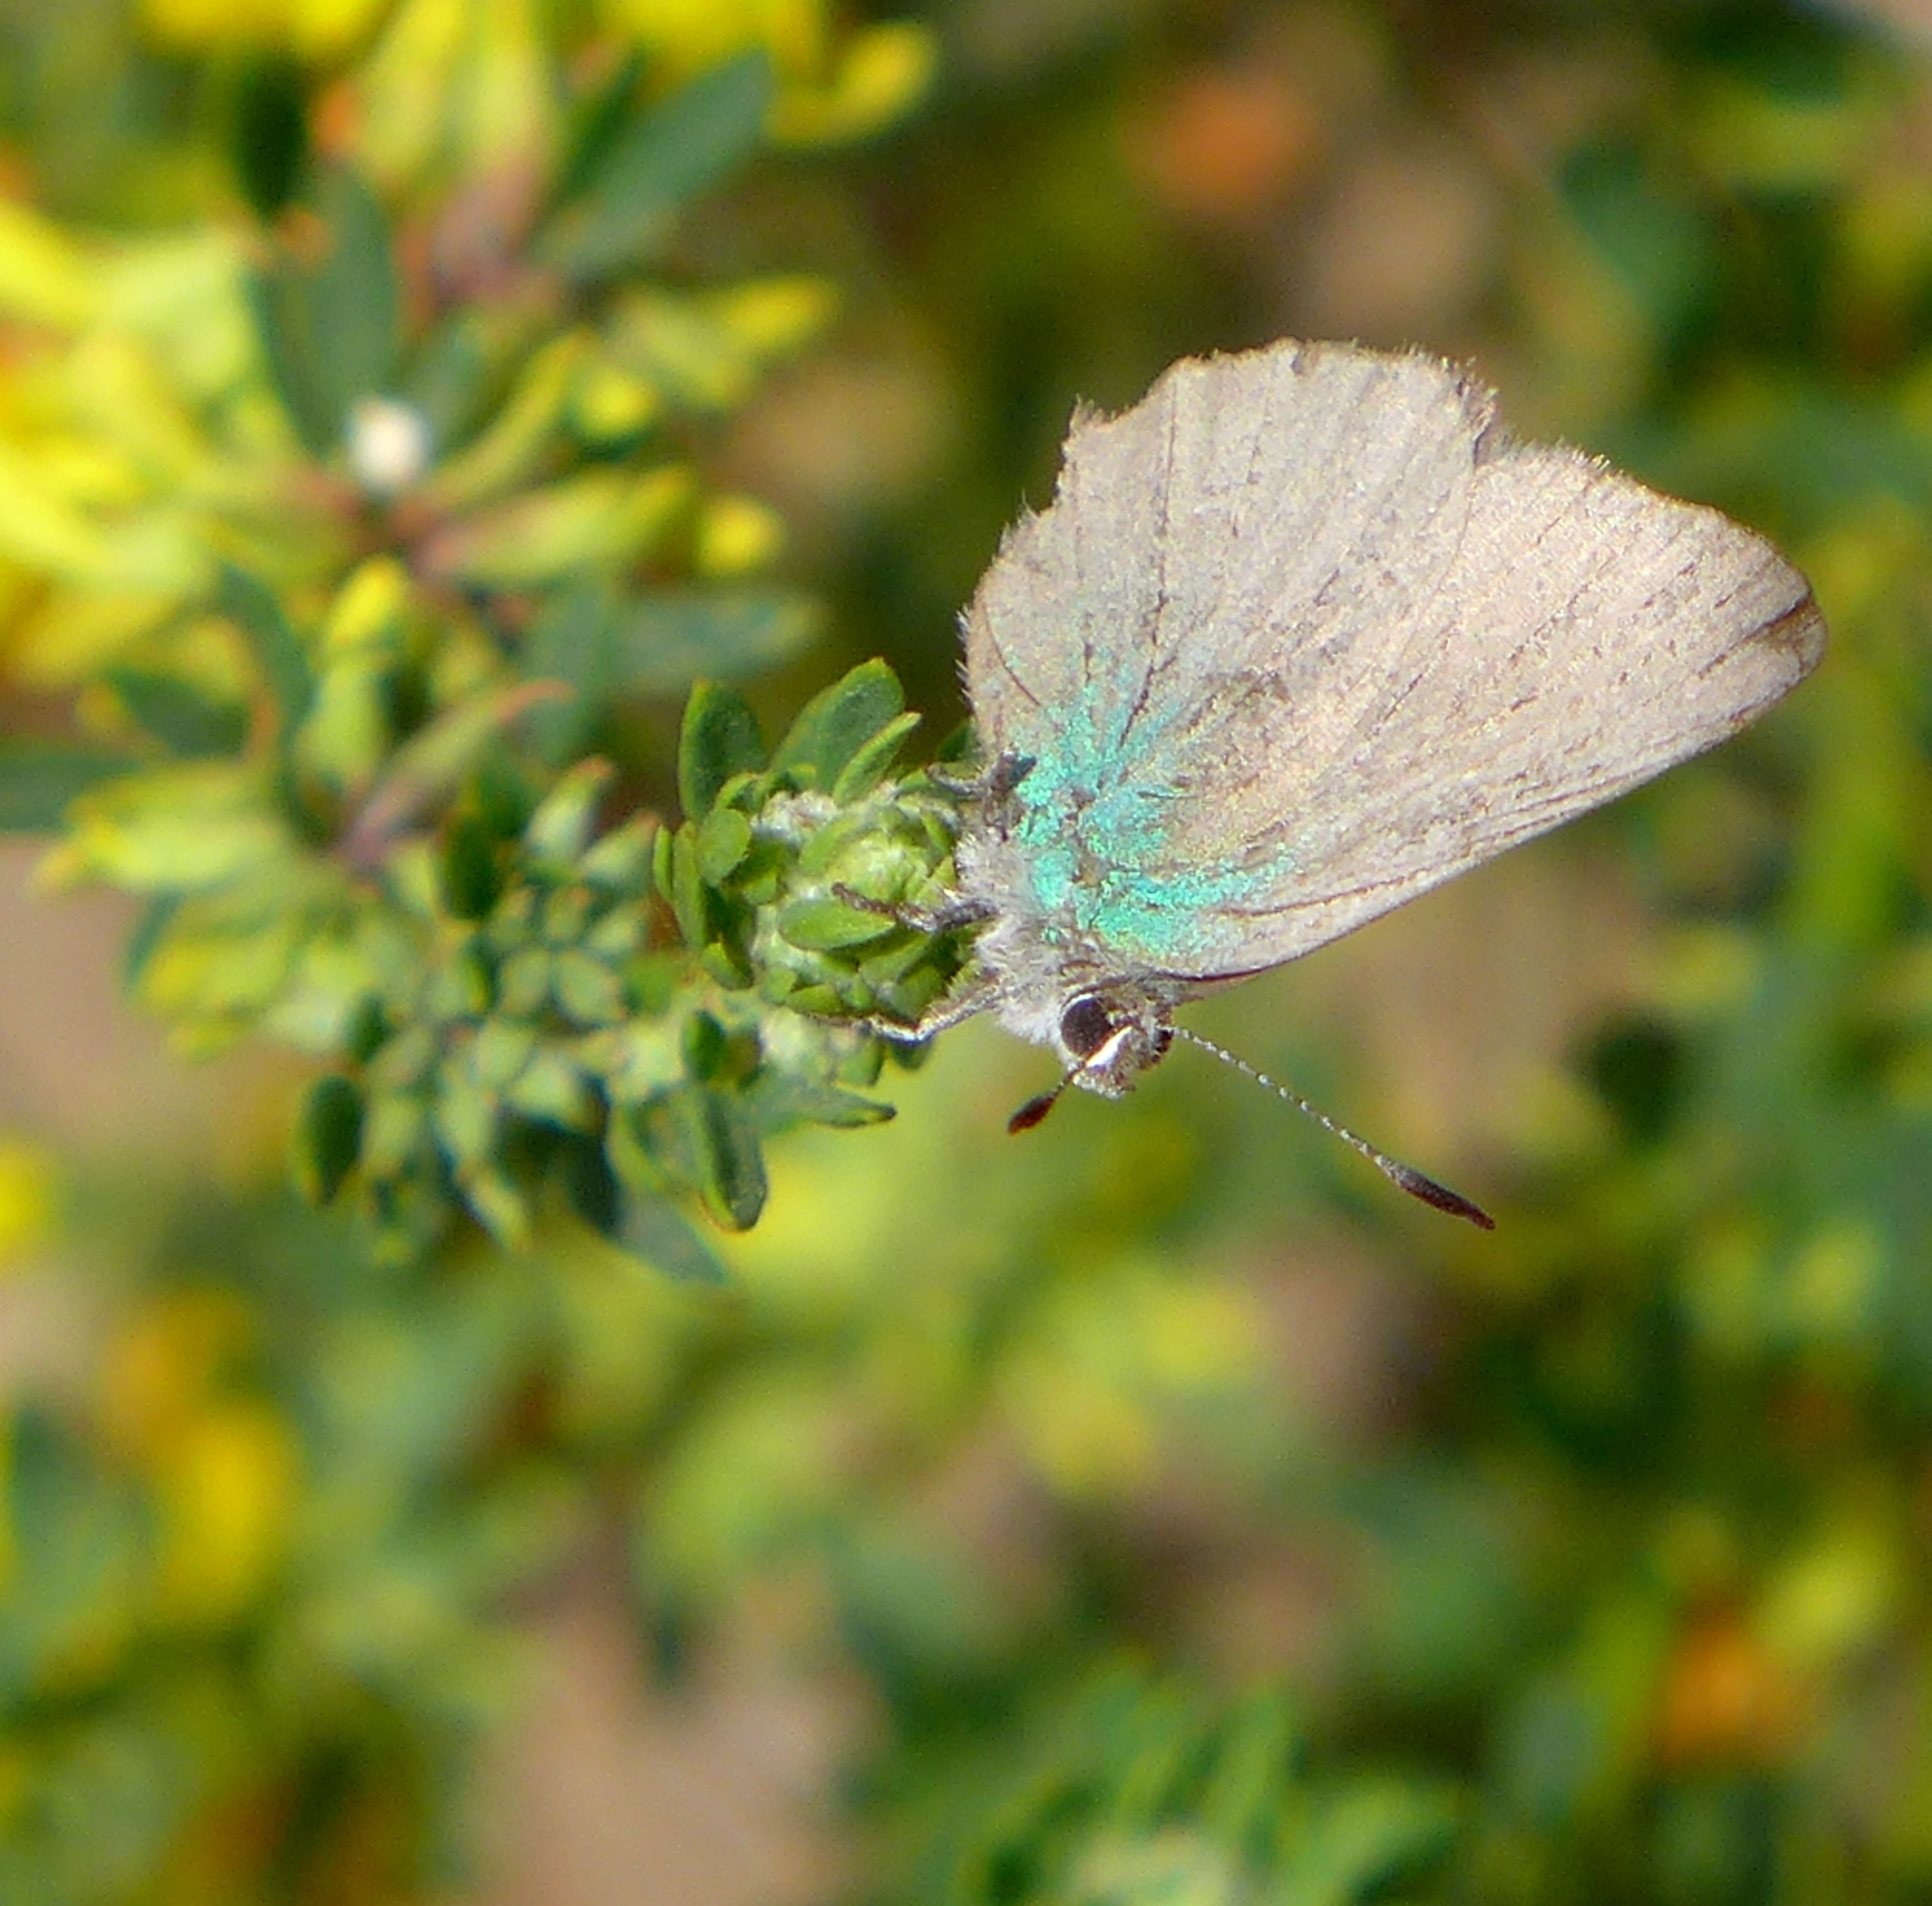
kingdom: Animalia
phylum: Arthropoda
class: Insecta
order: Lepidoptera
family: Lycaenidae
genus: Callophrys
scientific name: Callophrys dumetorum
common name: Bramble hairstreak
